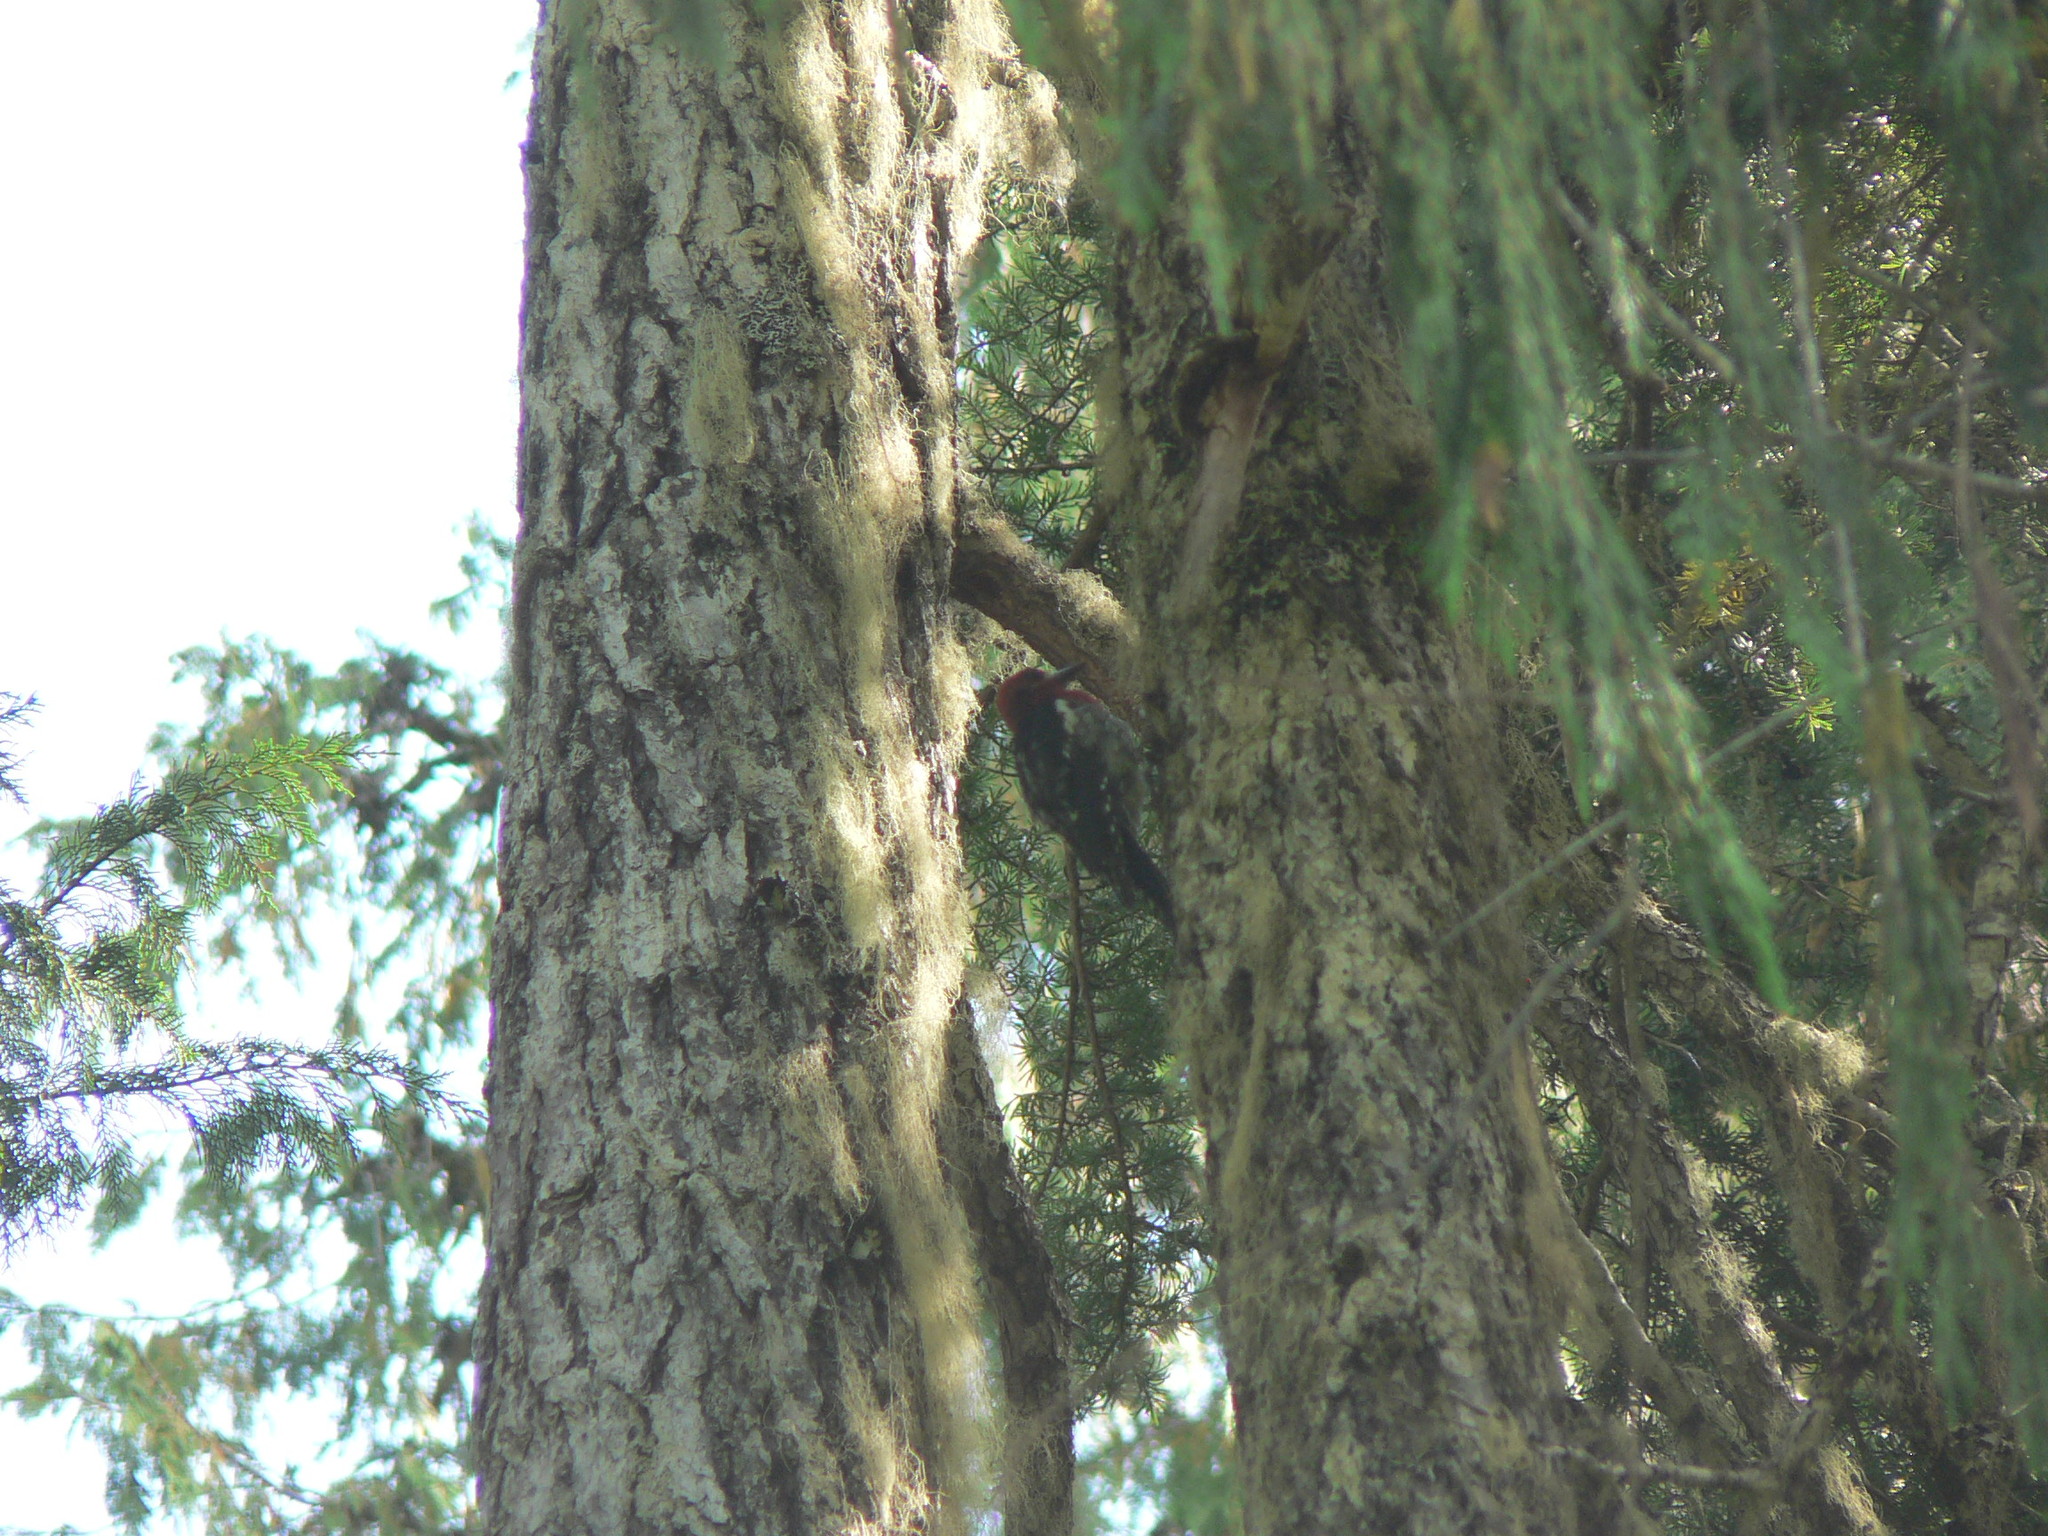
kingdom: Animalia
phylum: Chordata
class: Aves
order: Piciformes
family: Picidae
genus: Sphyrapicus
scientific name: Sphyrapicus ruber
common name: Red-breasted sapsucker
